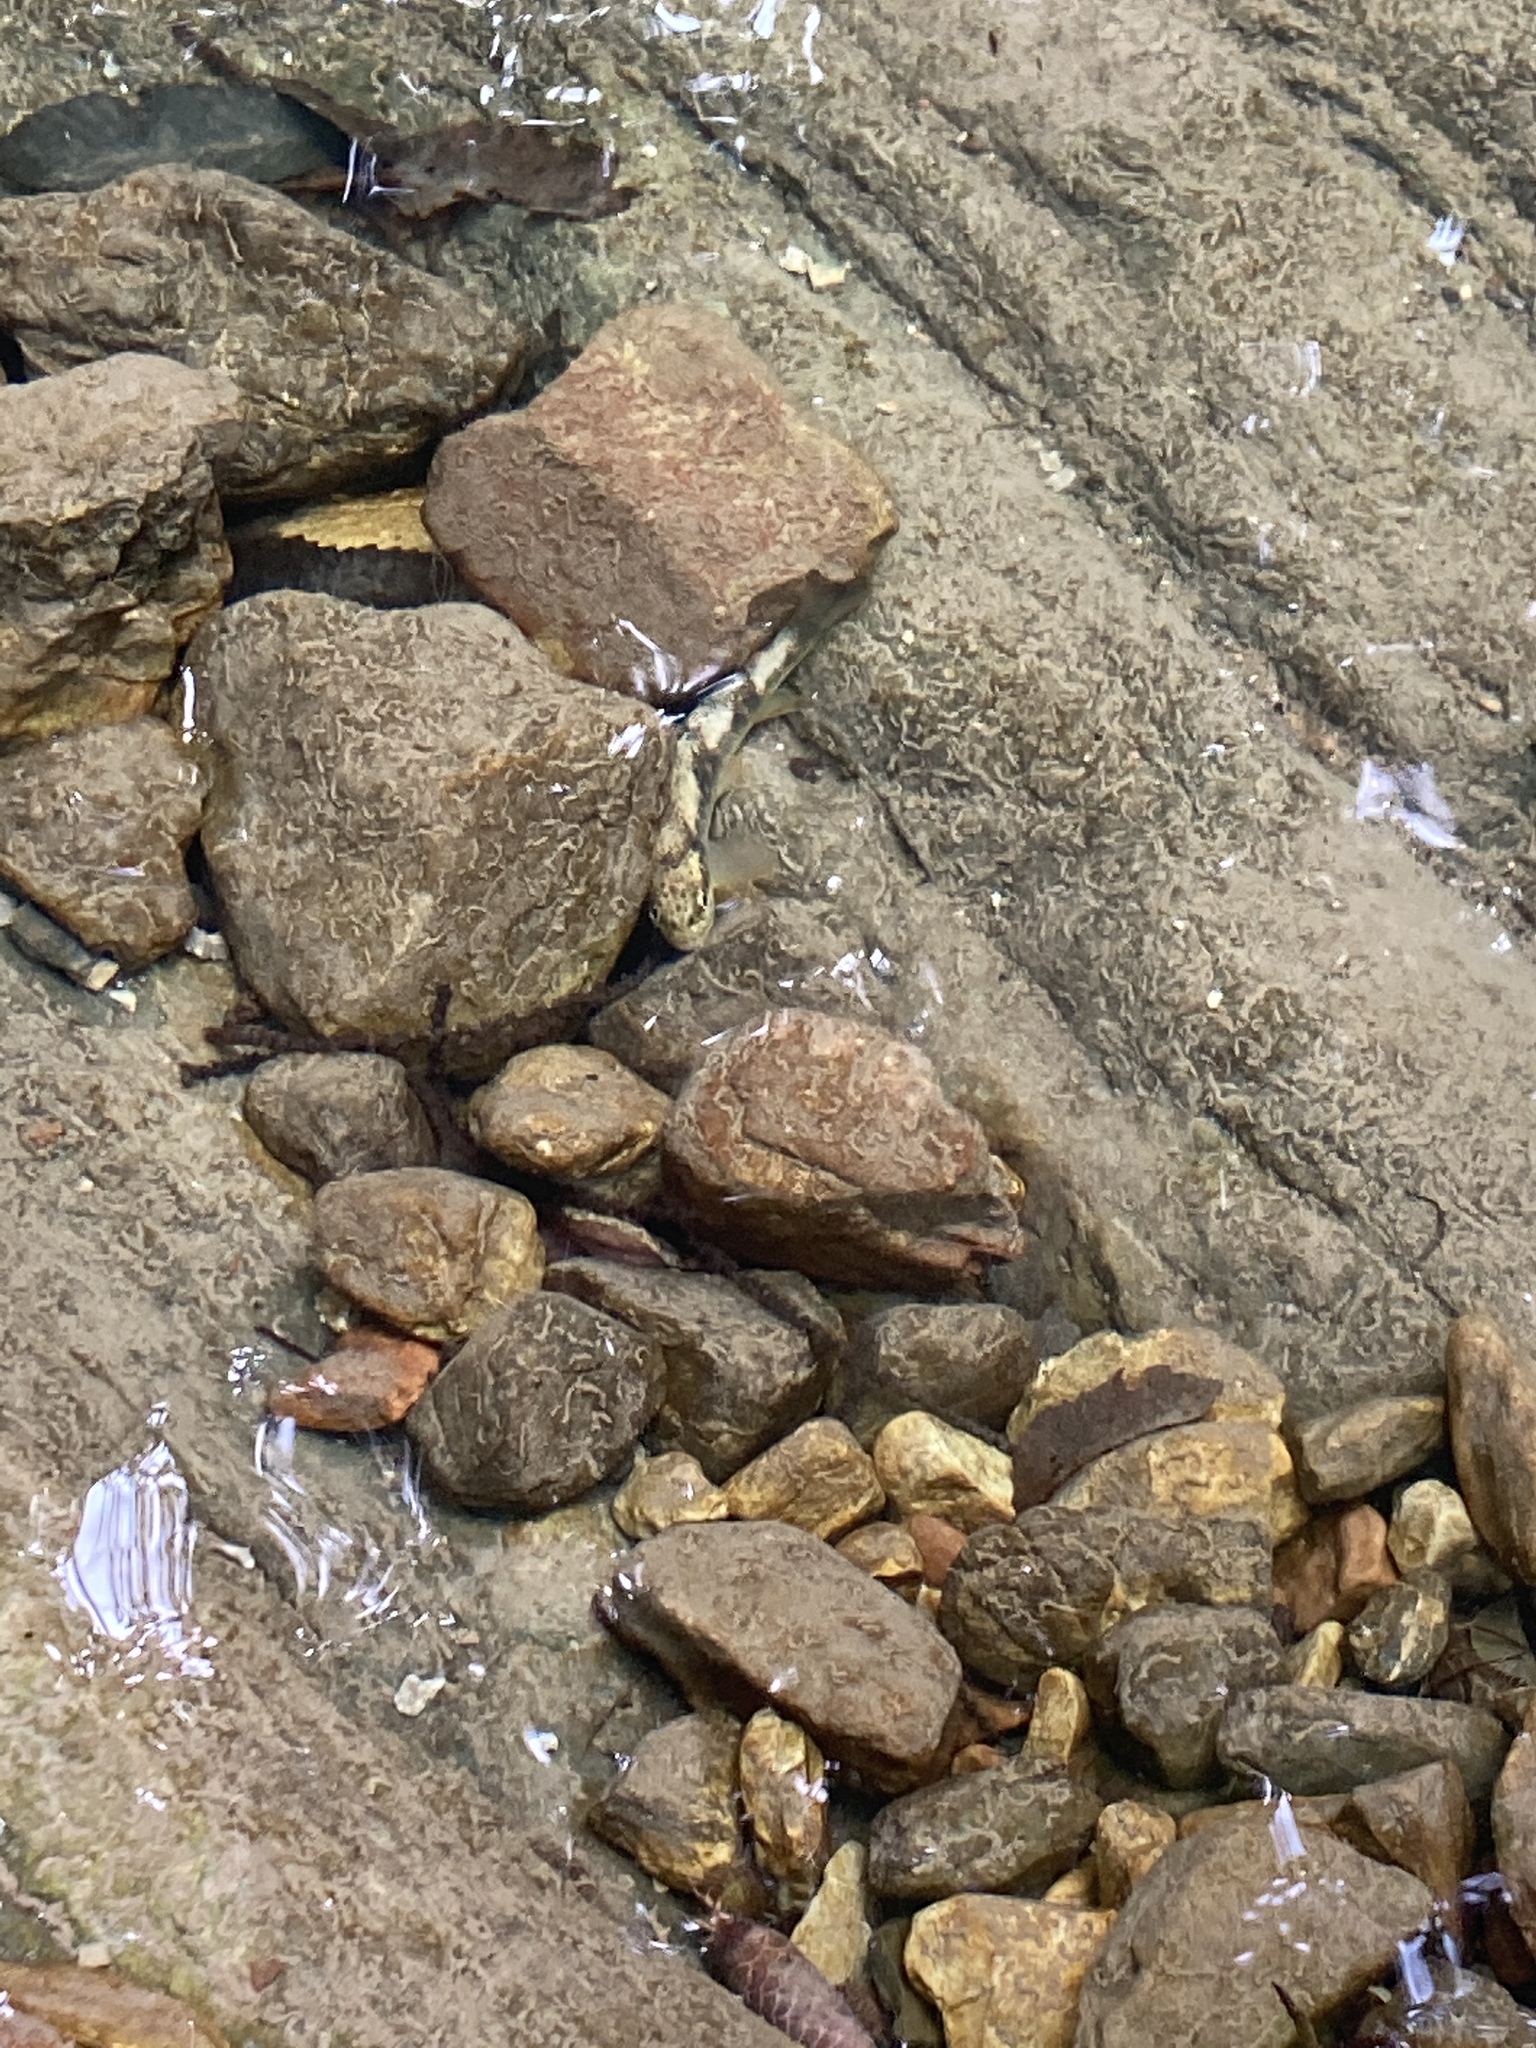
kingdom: Animalia
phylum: Chordata
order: Salmoniformes
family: Salmonidae
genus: Salmo
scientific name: Salmo trutta
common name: Brown trout
